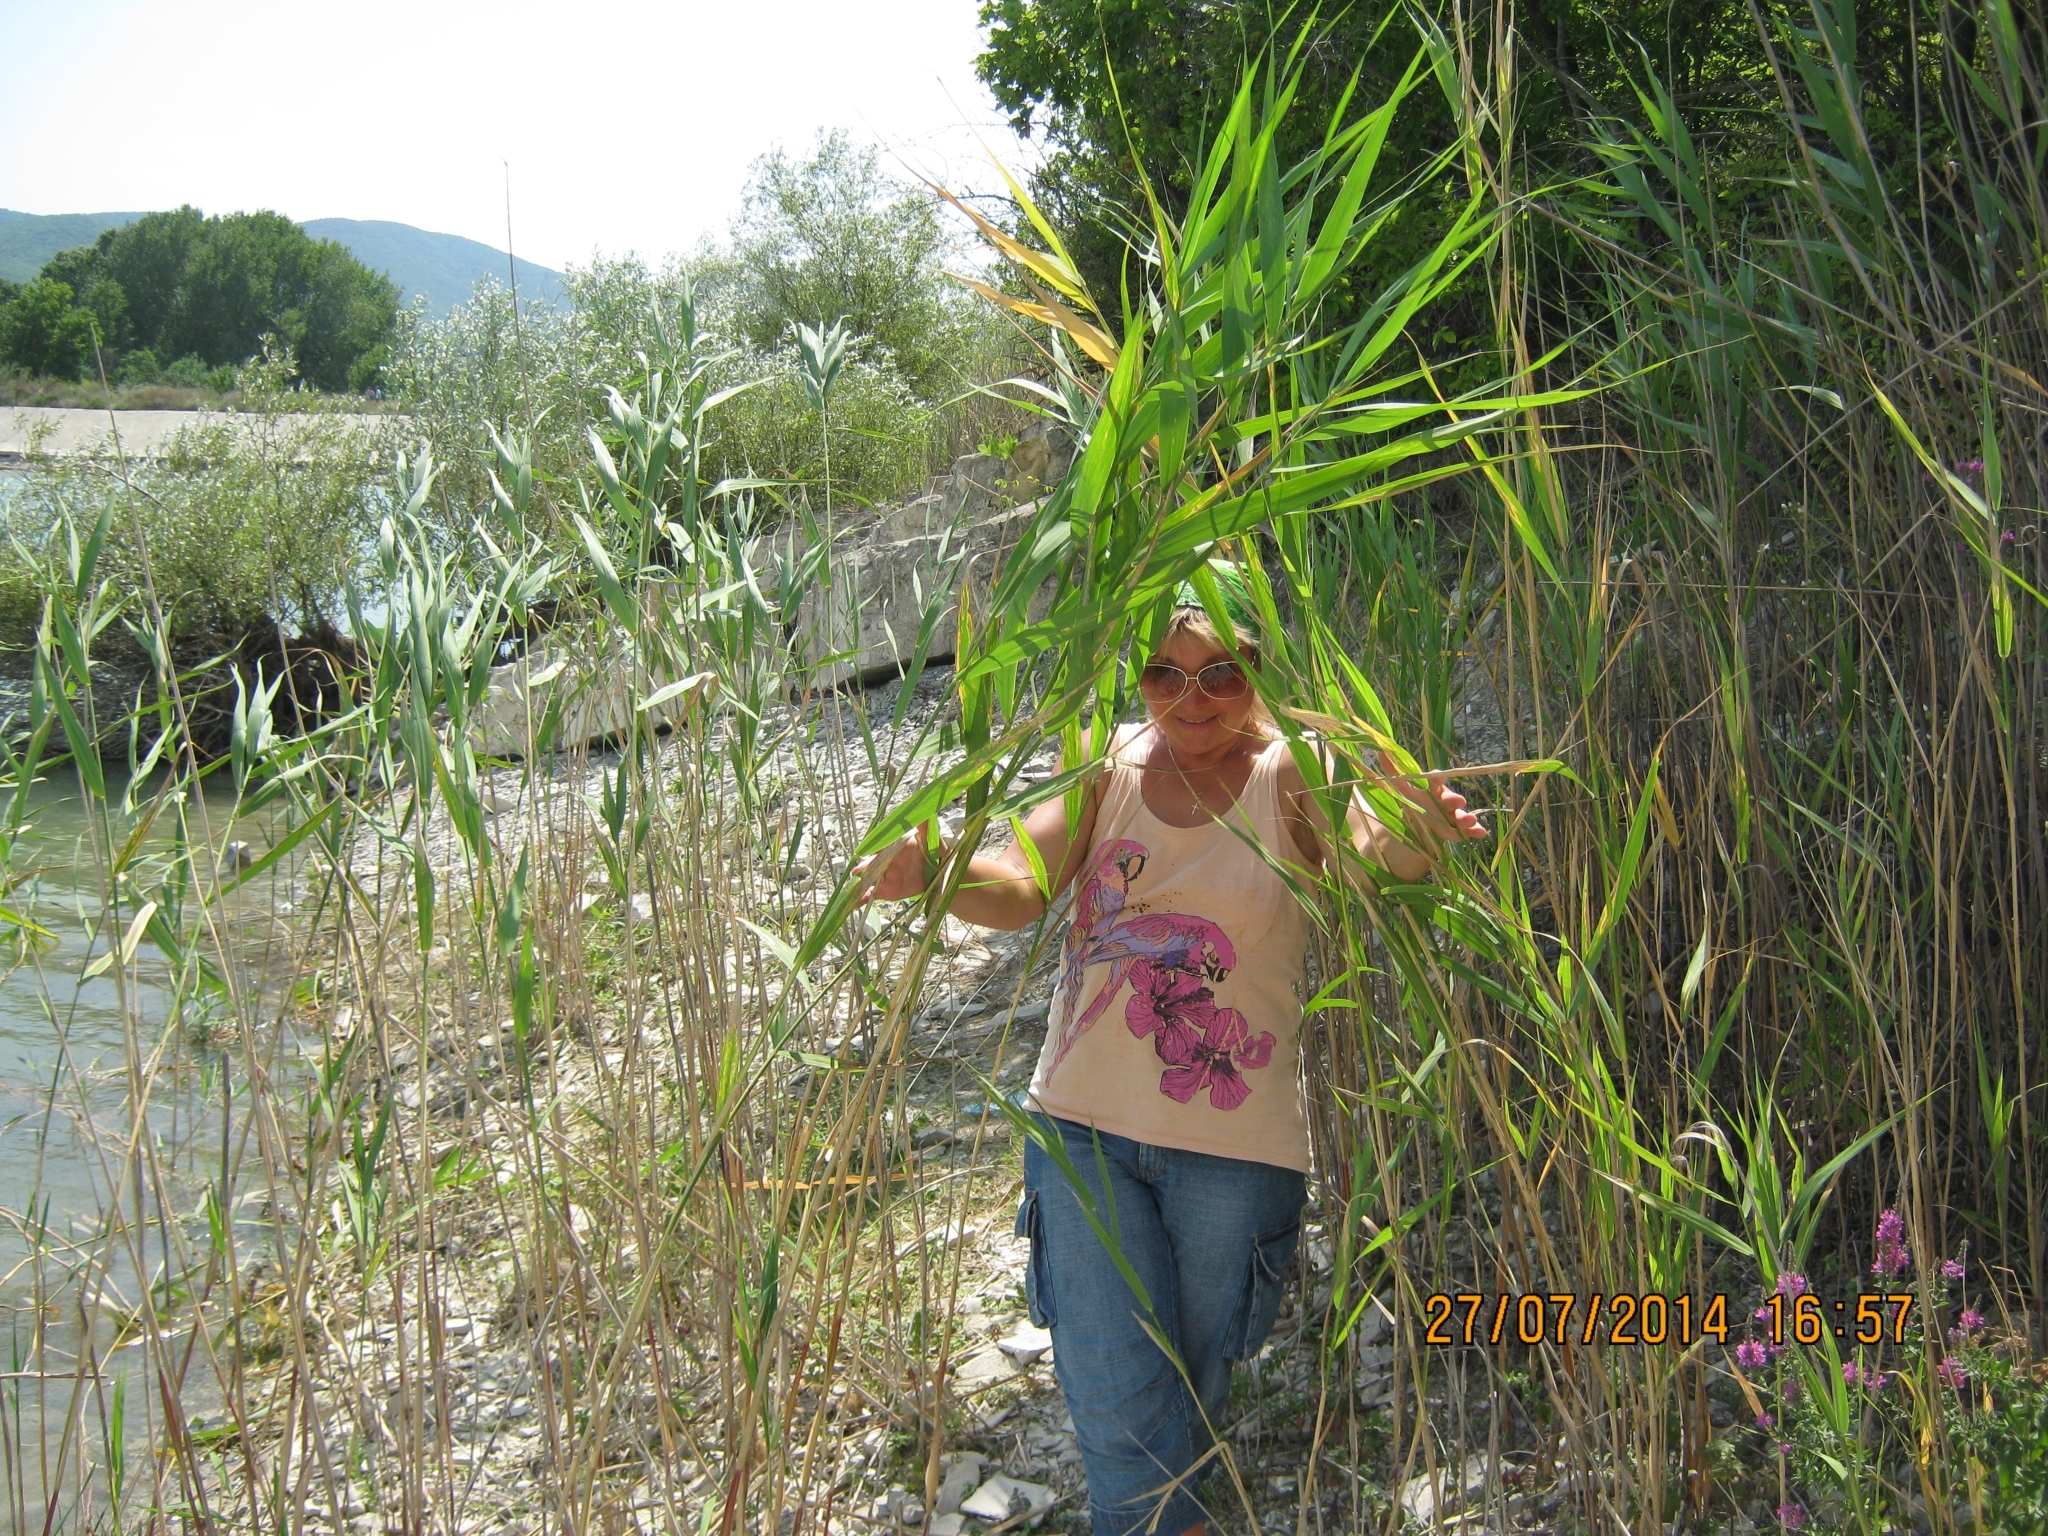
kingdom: Plantae
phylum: Tracheophyta
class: Liliopsida
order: Poales
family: Poaceae
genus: Phragmites
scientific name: Phragmites australis
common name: Common reed
